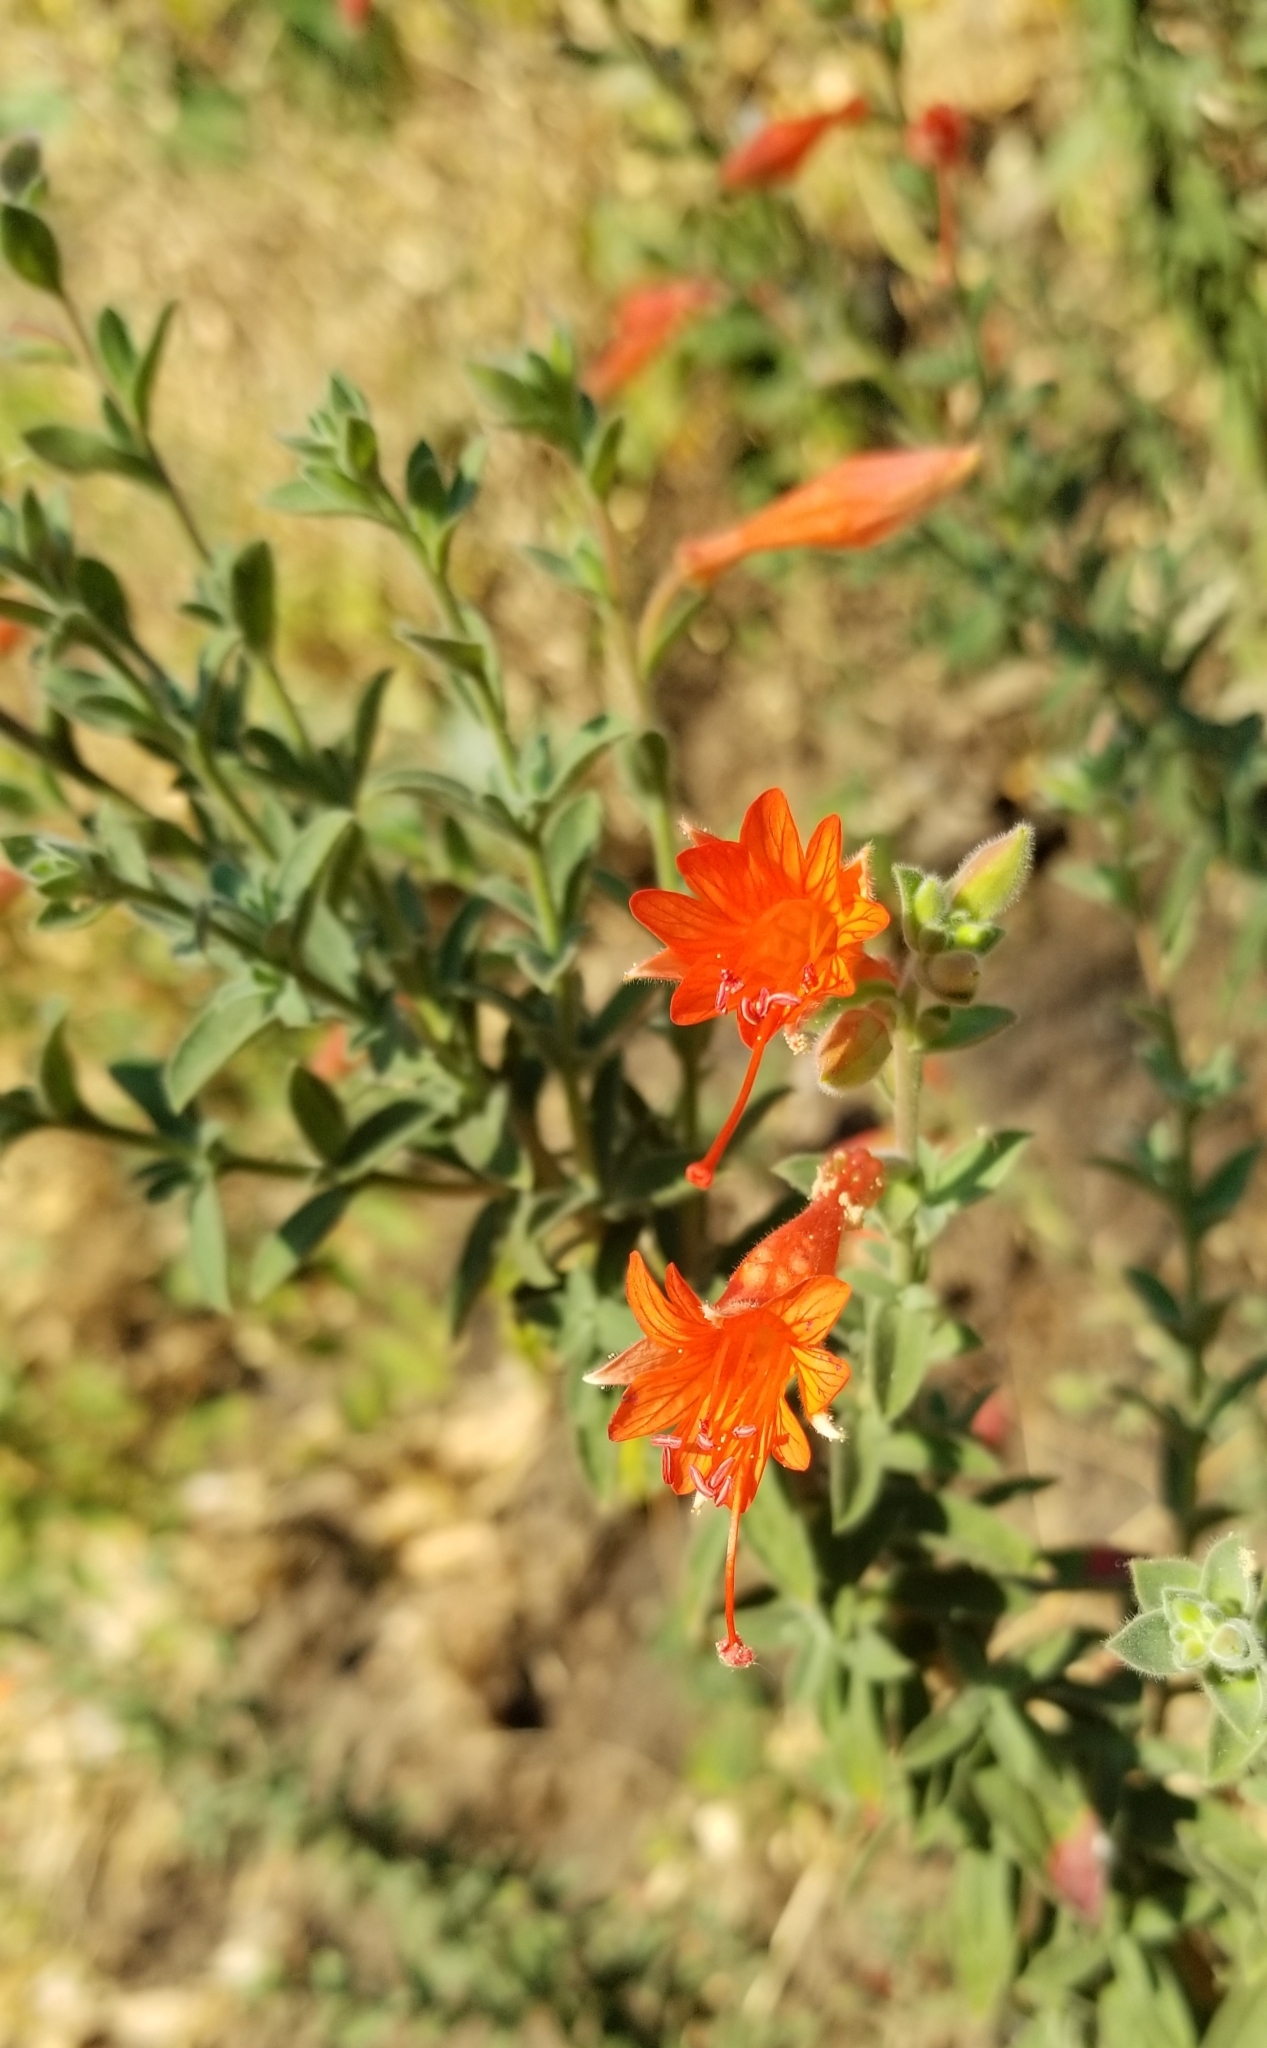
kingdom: Plantae
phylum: Tracheophyta
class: Magnoliopsida
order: Myrtales
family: Onagraceae
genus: Epilobium
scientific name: Epilobium canum
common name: California-fuchsia
